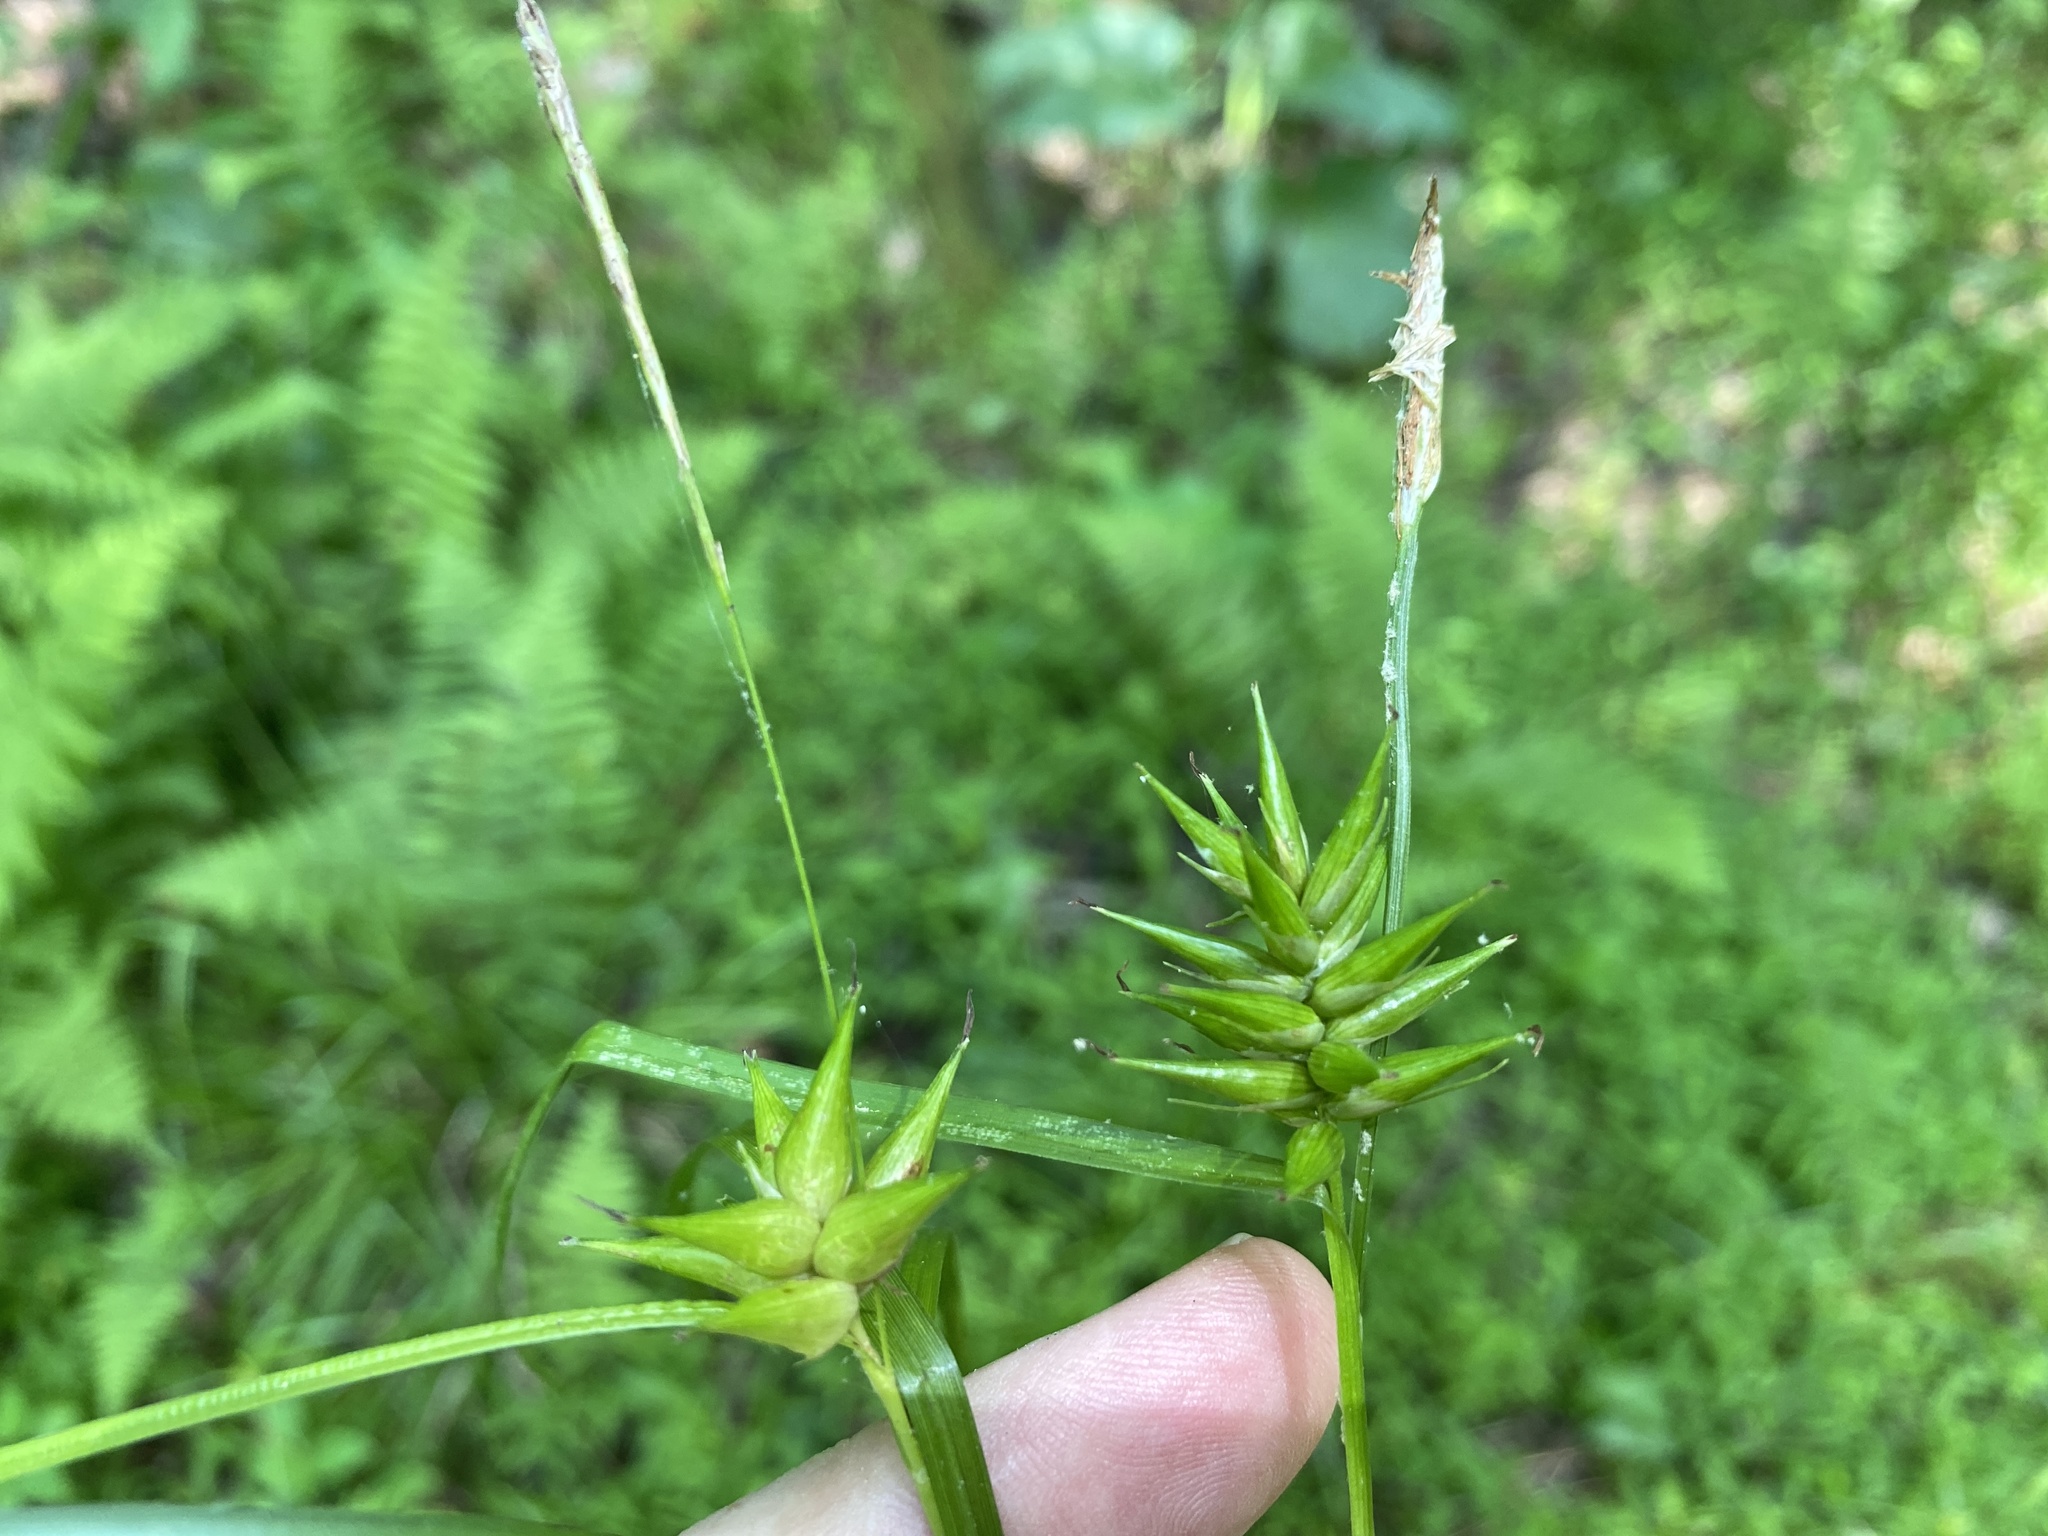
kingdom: Plantae
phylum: Tracheophyta
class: Liliopsida
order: Poales
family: Cyperaceae
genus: Carex
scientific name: Carex folliculata
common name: Northern long sedge
